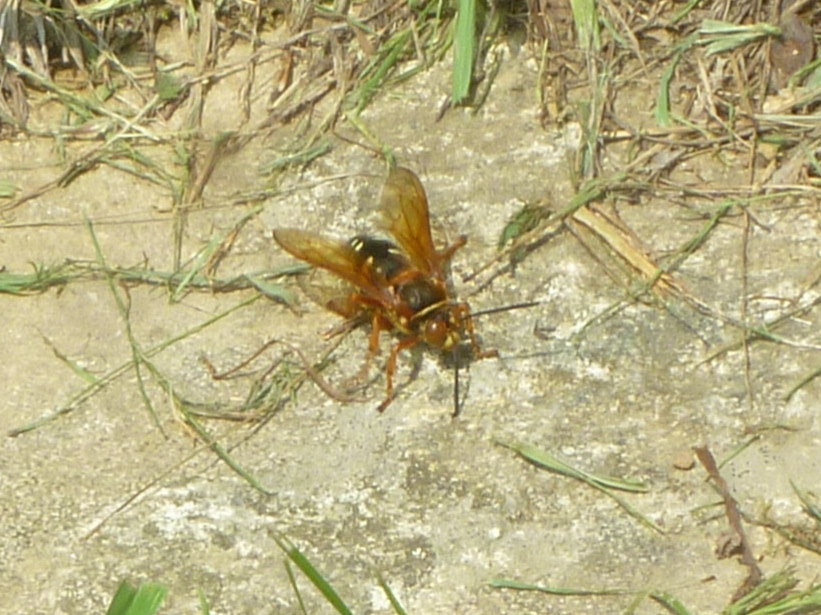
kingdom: Animalia
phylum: Arthropoda
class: Insecta
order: Hymenoptera
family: Crabronidae
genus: Sphecius
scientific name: Sphecius speciosus
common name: Cicada killer
